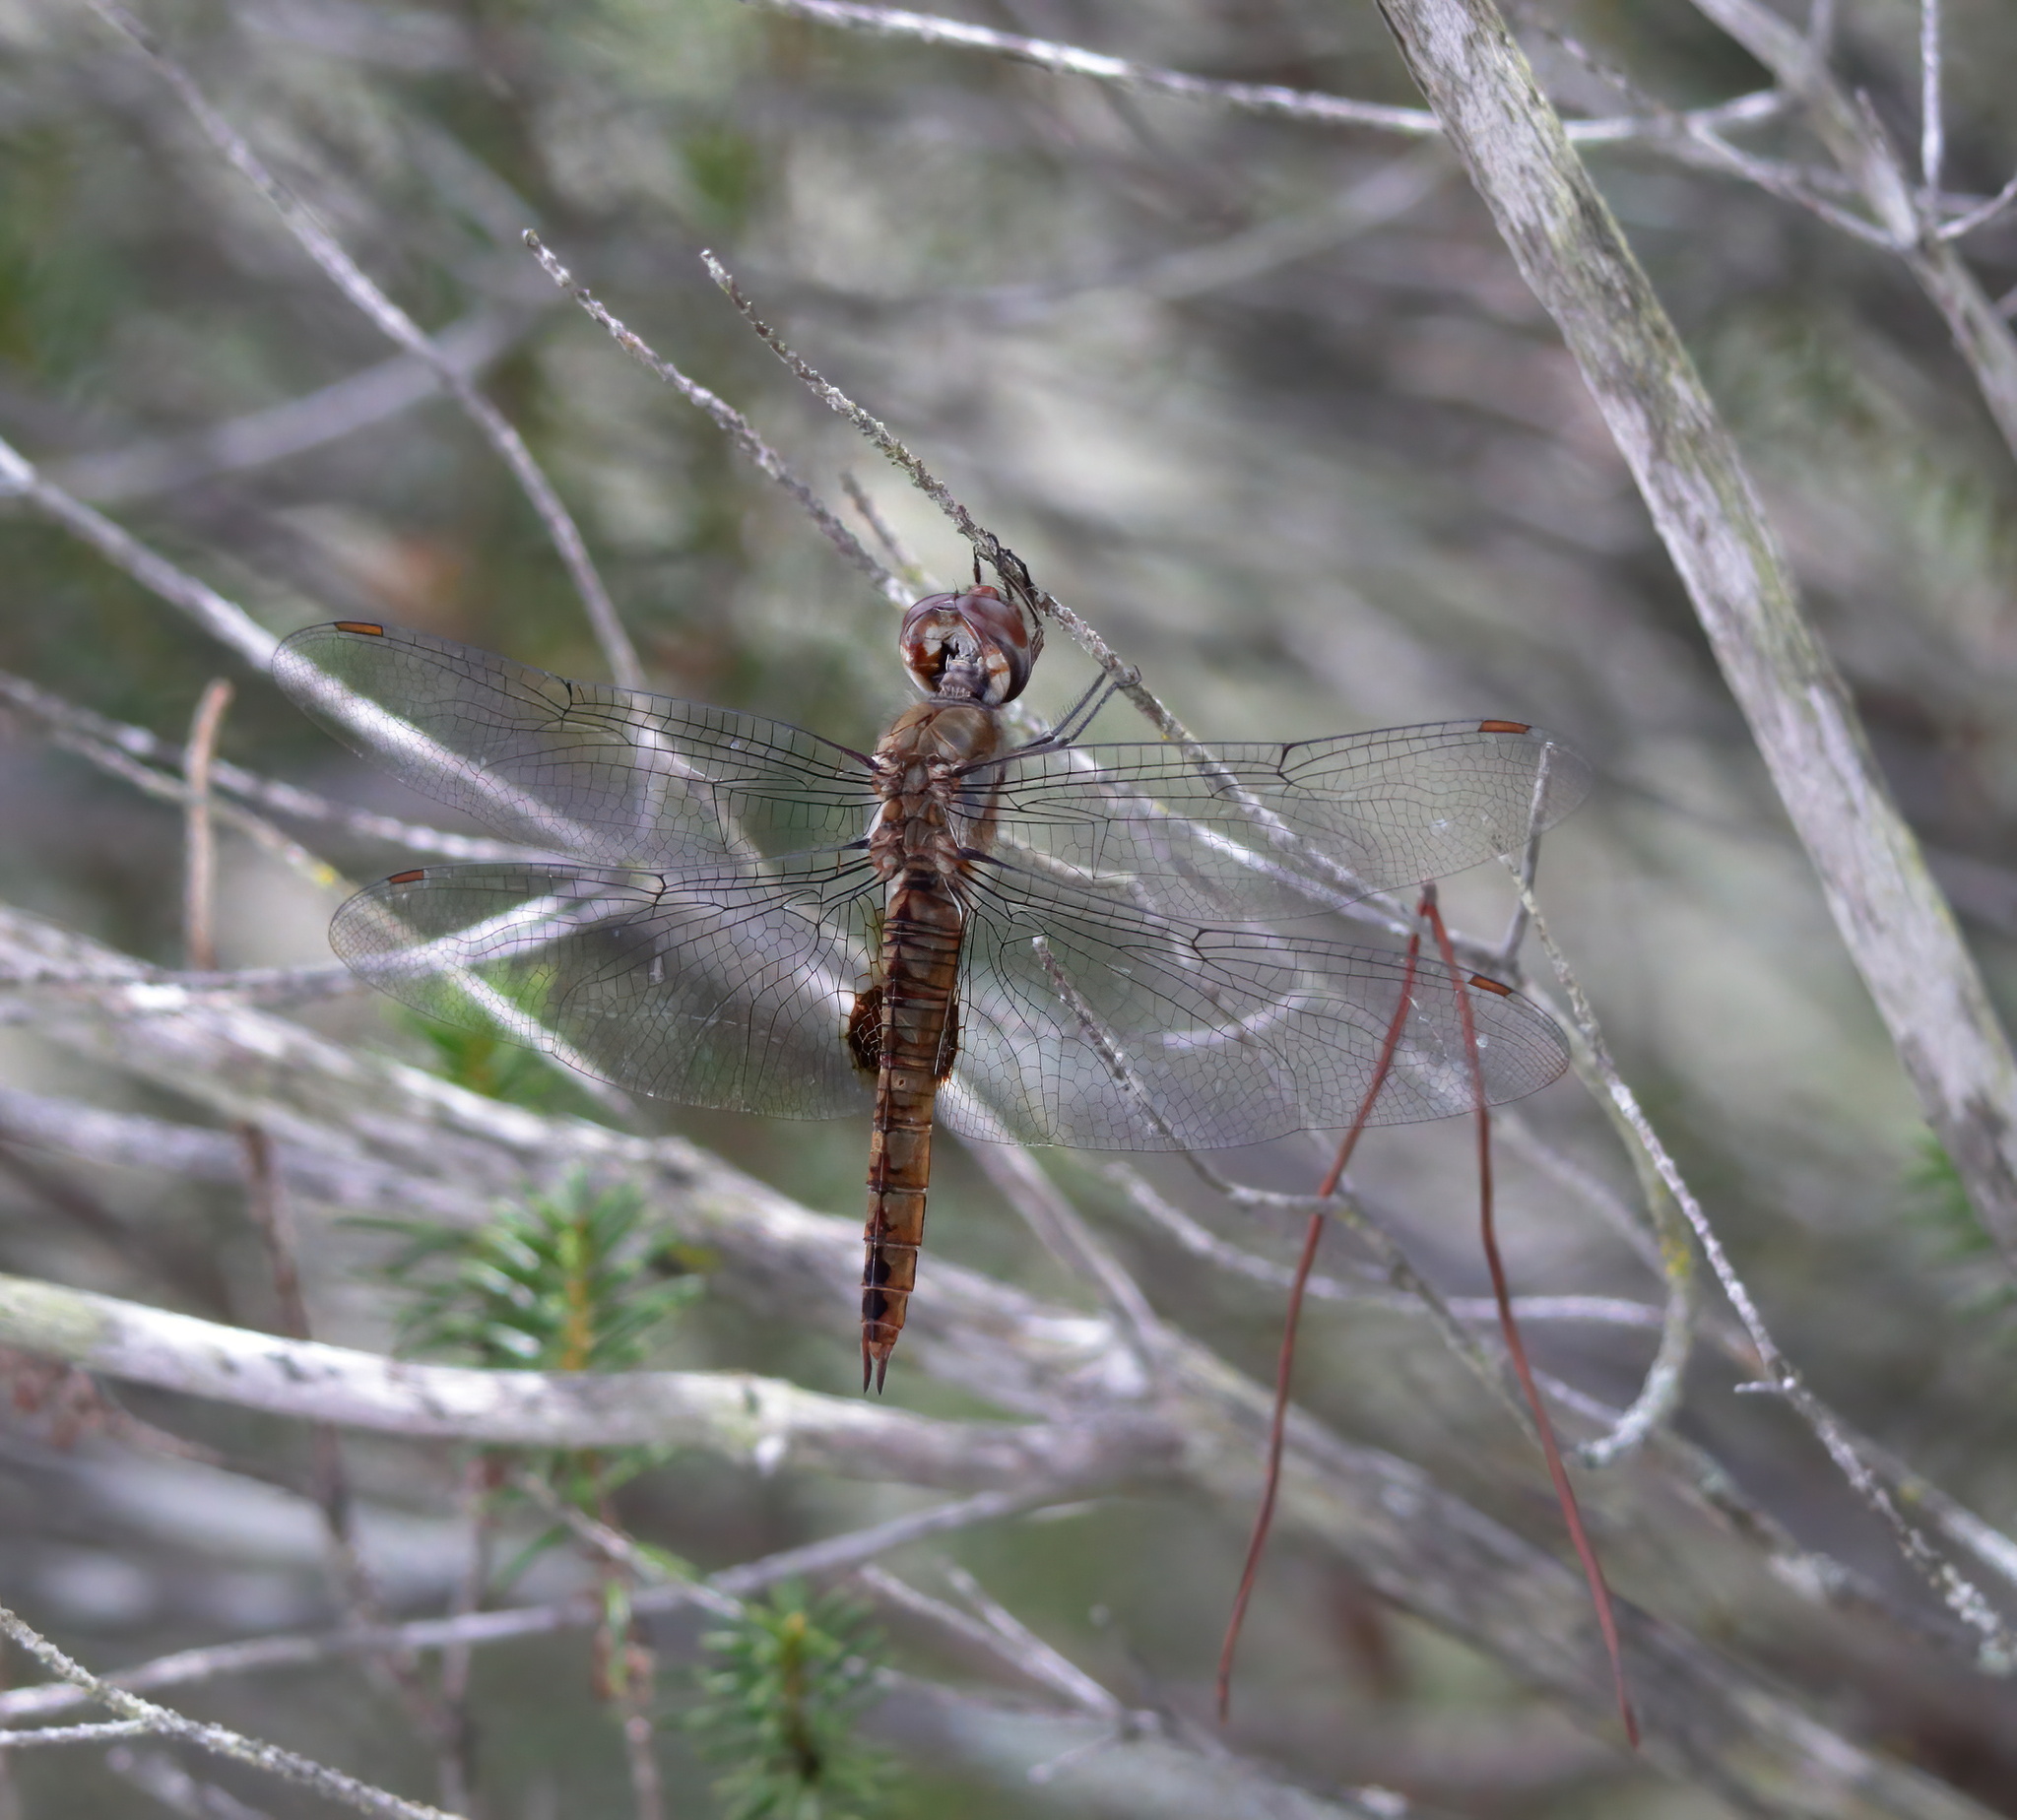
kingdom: Animalia
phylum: Arthropoda
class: Insecta
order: Odonata
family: Libellulidae
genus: Pantala
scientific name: Pantala hymenaea
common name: Spot-winged glider
